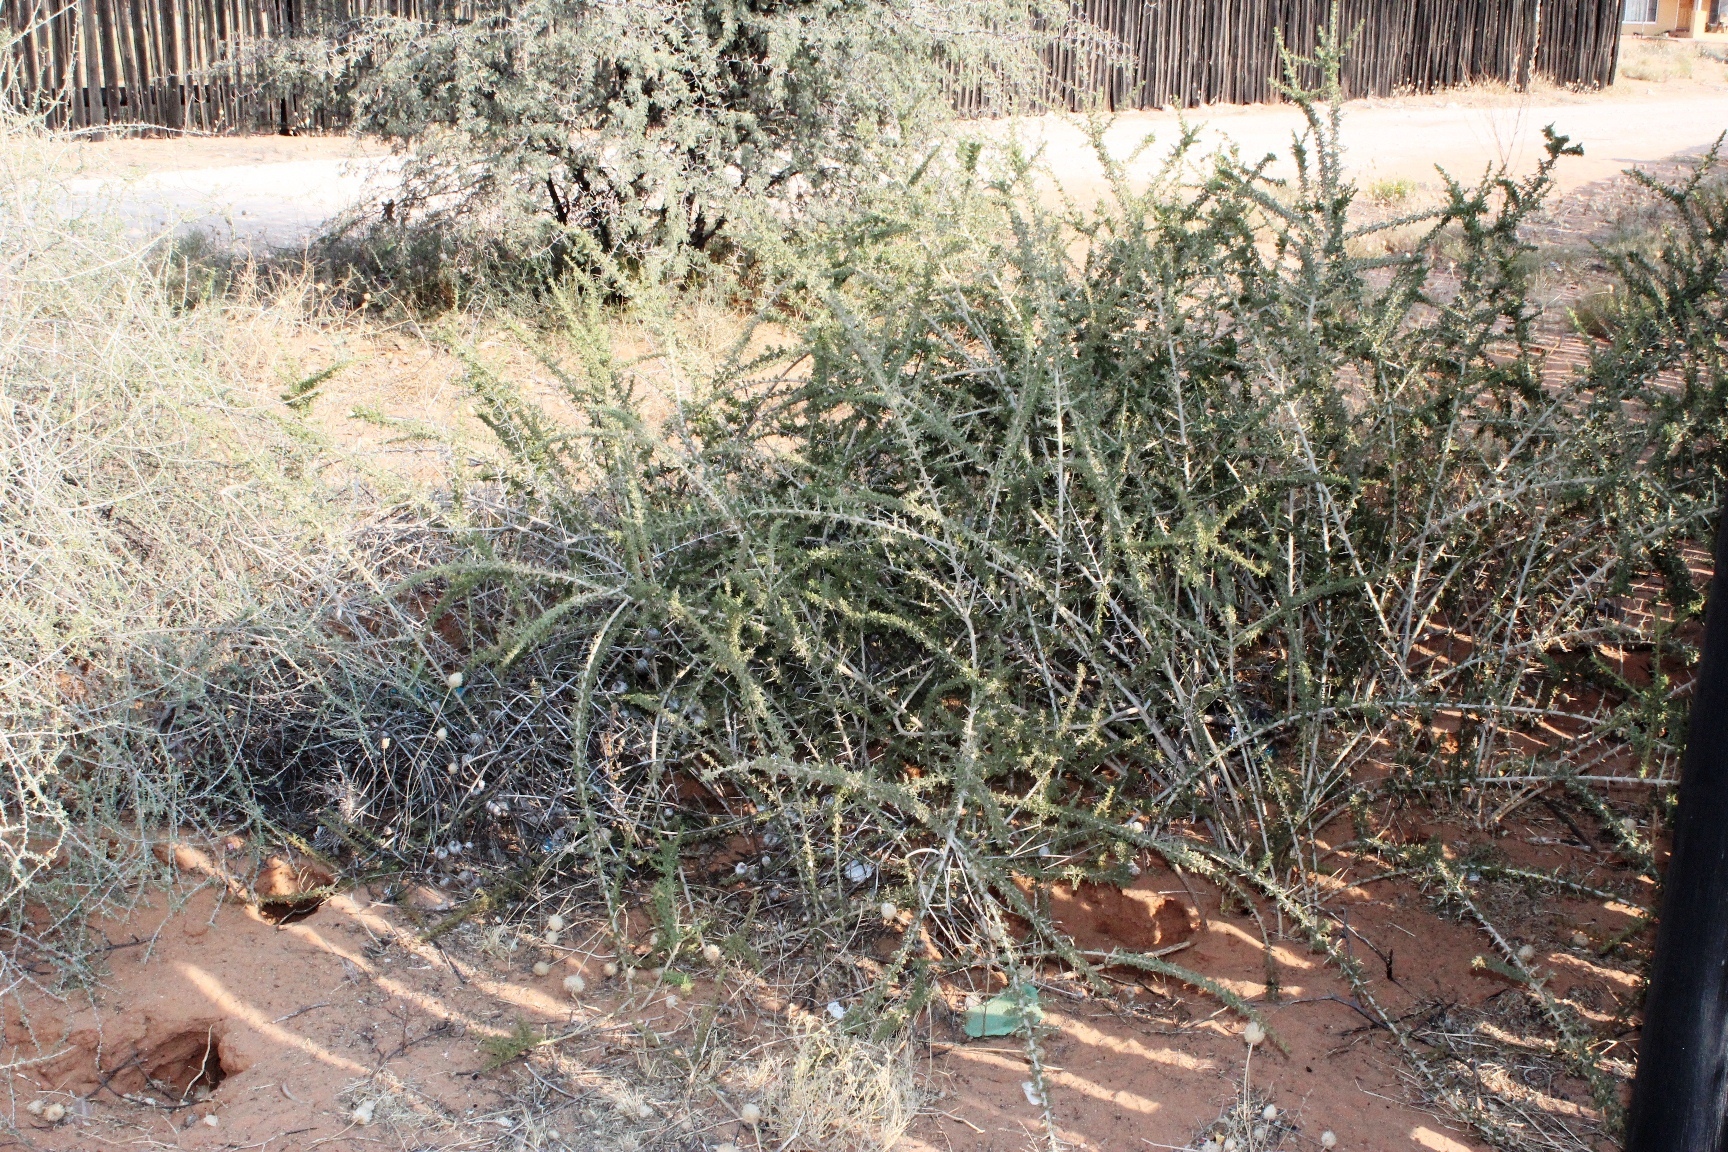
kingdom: Plantae
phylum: Tracheophyta
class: Magnoliopsida
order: Solanales
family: Solanaceae
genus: Lycium
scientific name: Lycium hirsutum
